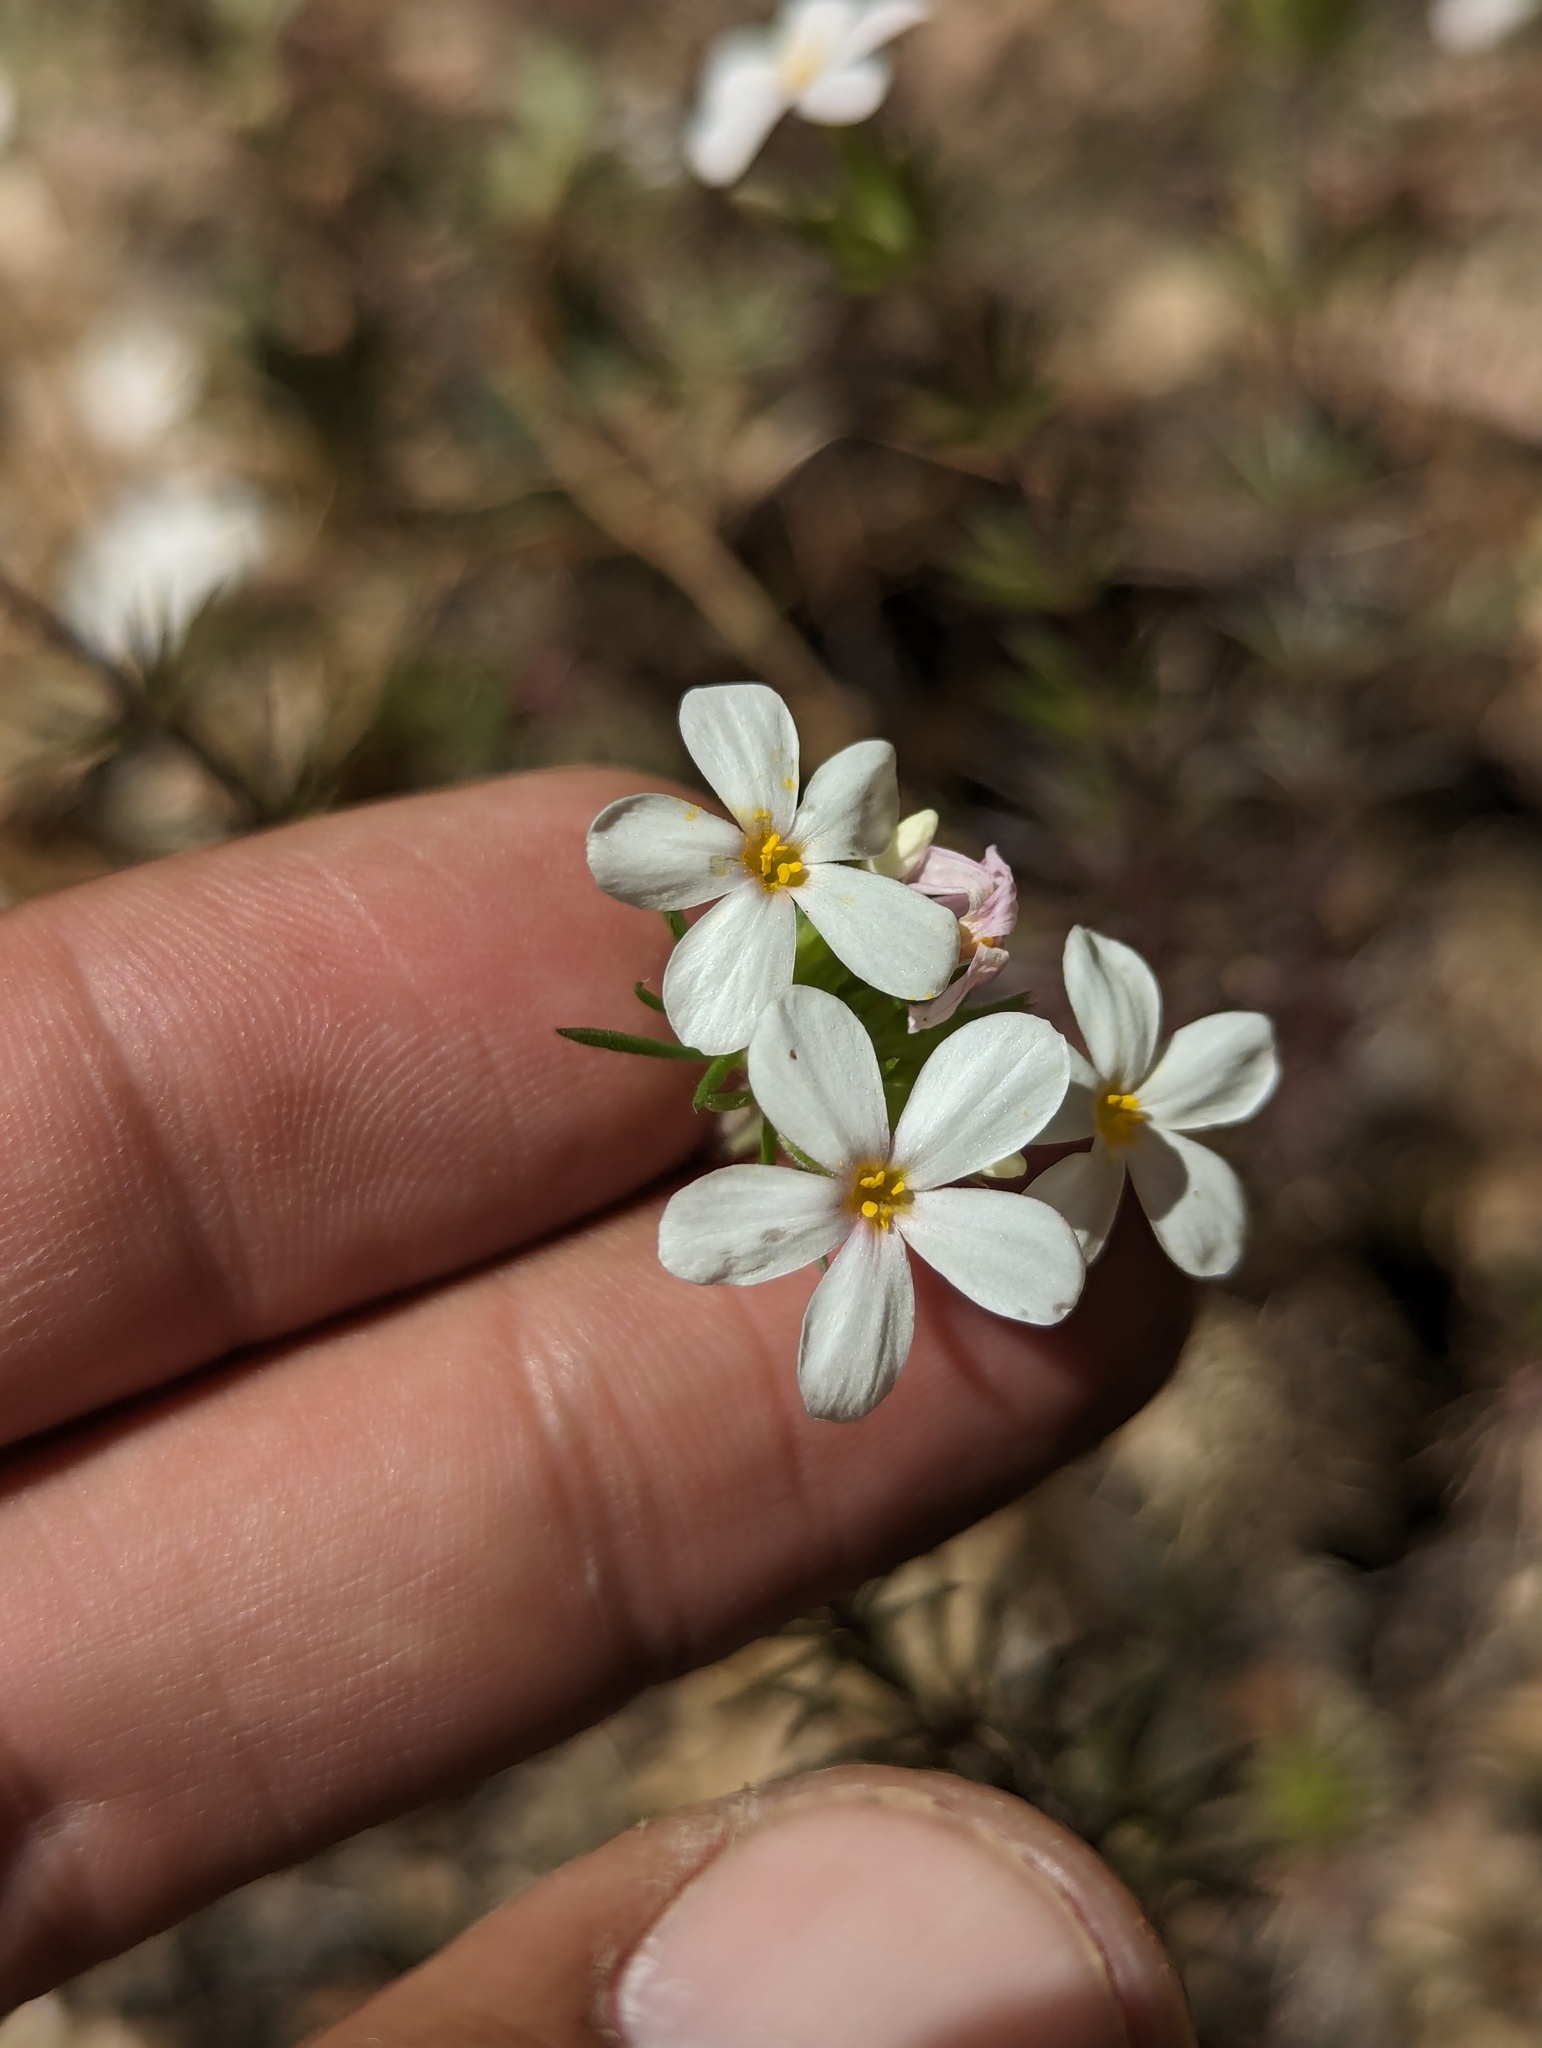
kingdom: Plantae
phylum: Tracheophyta
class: Magnoliopsida
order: Ericales
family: Polemoniaceae
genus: Leptosiphon
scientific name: Leptosiphon nuttallii
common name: Nuttall's linanthus
